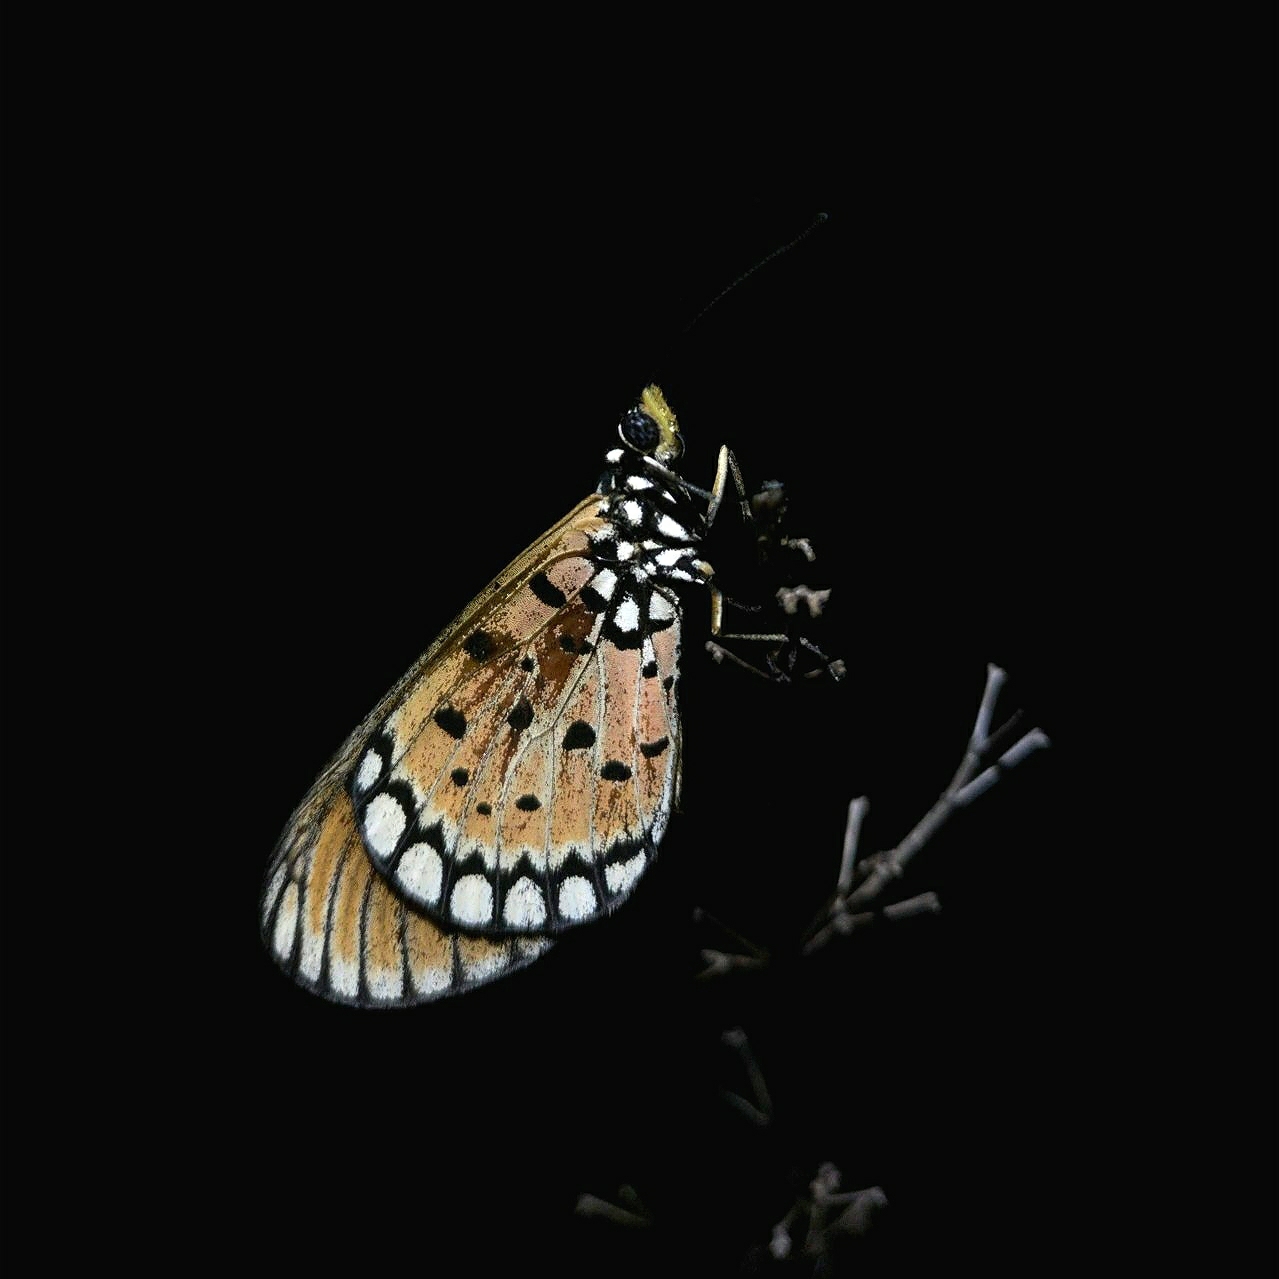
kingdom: Animalia
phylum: Arthropoda
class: Insecta
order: Lepidoptera
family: Nymphalidae
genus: Acraea
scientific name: Acraea terpsicore
